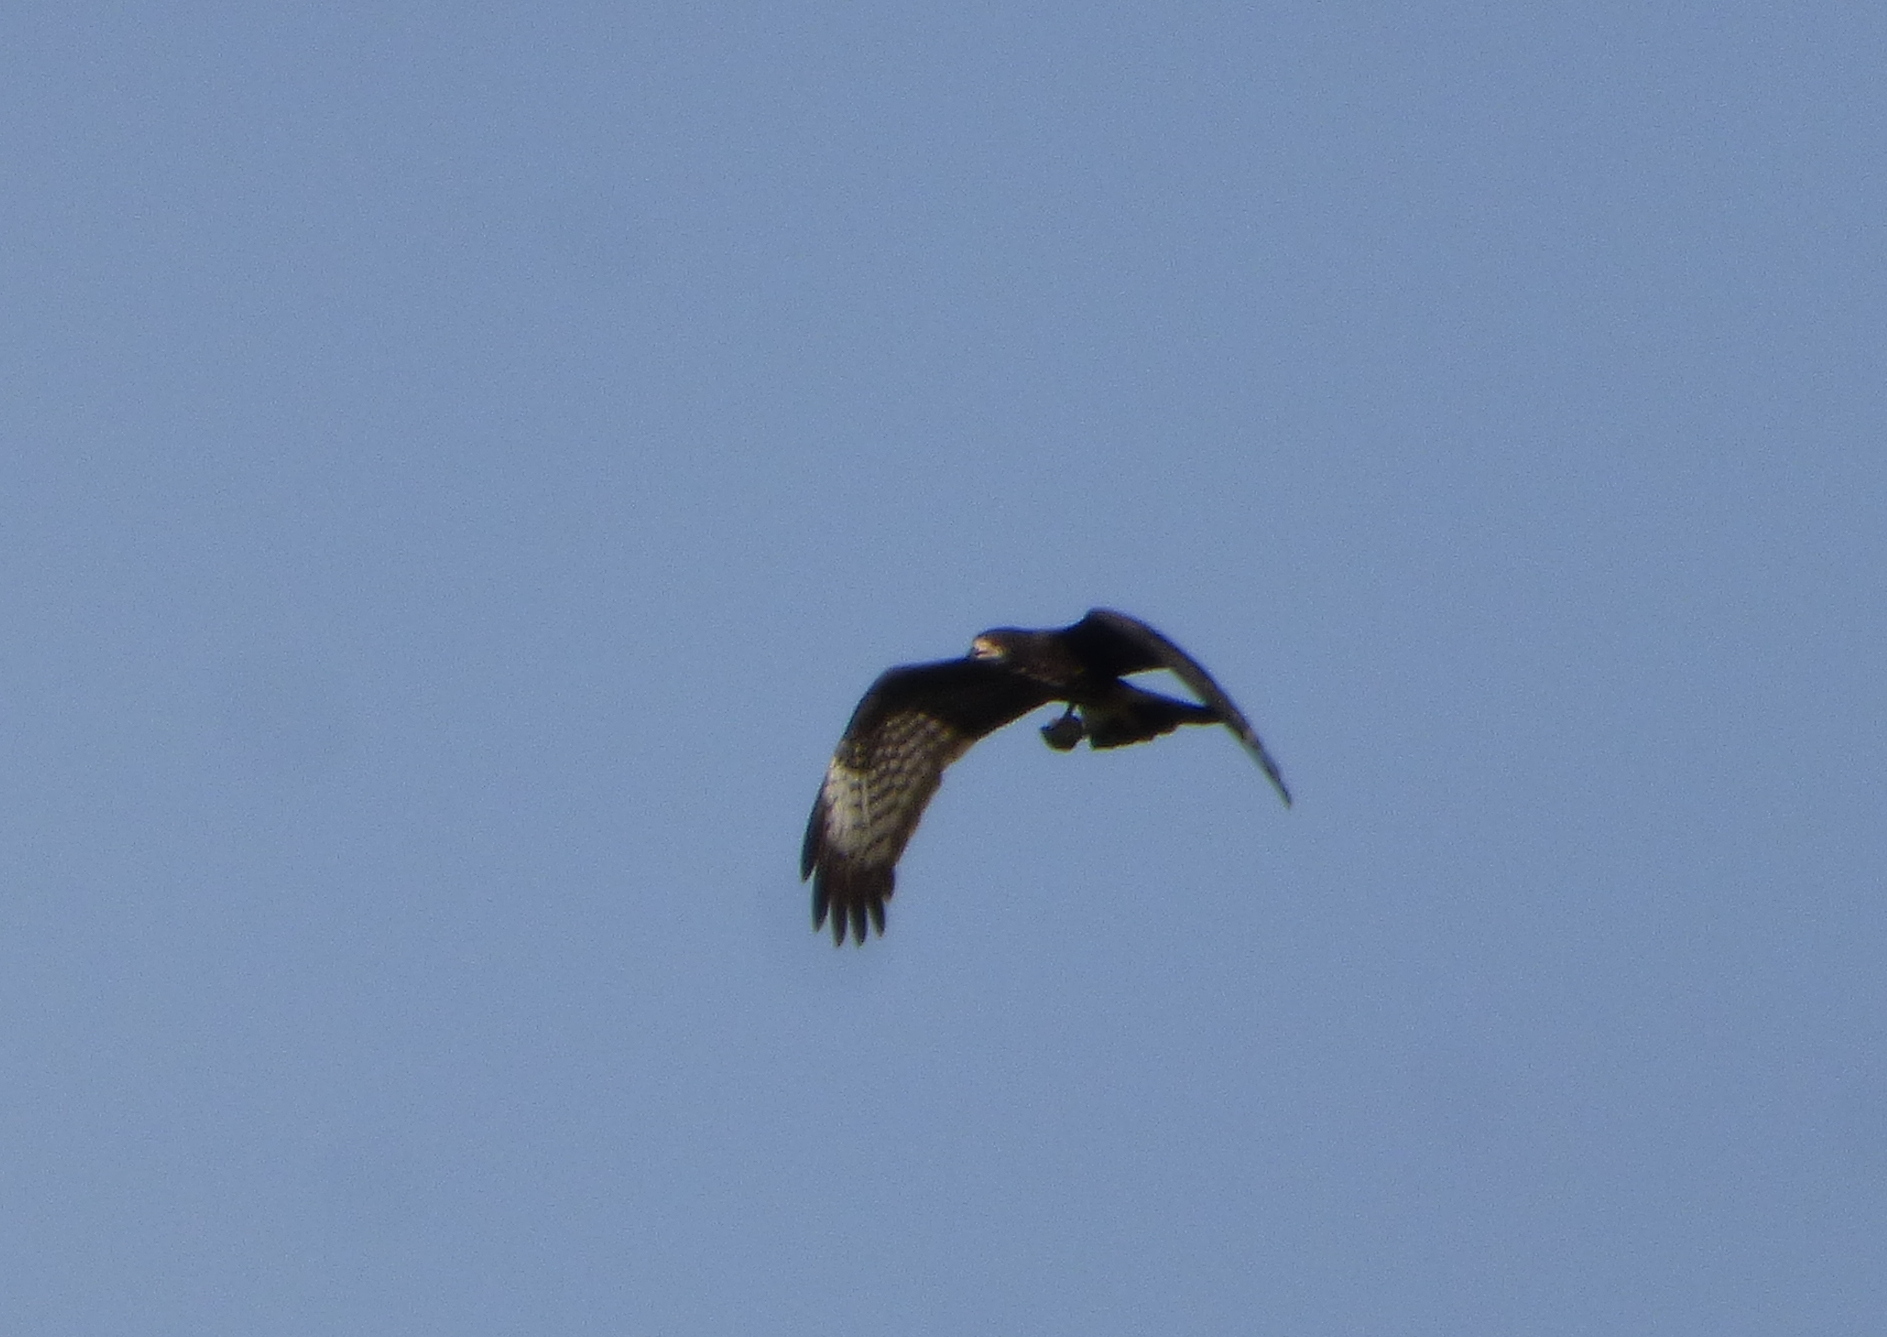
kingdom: Animalia
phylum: Chordata
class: Aves
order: Accipitriformes
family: Accipitridae
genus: Rostrhamus
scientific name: Rostrhamus sociabilis
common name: Snail kite
